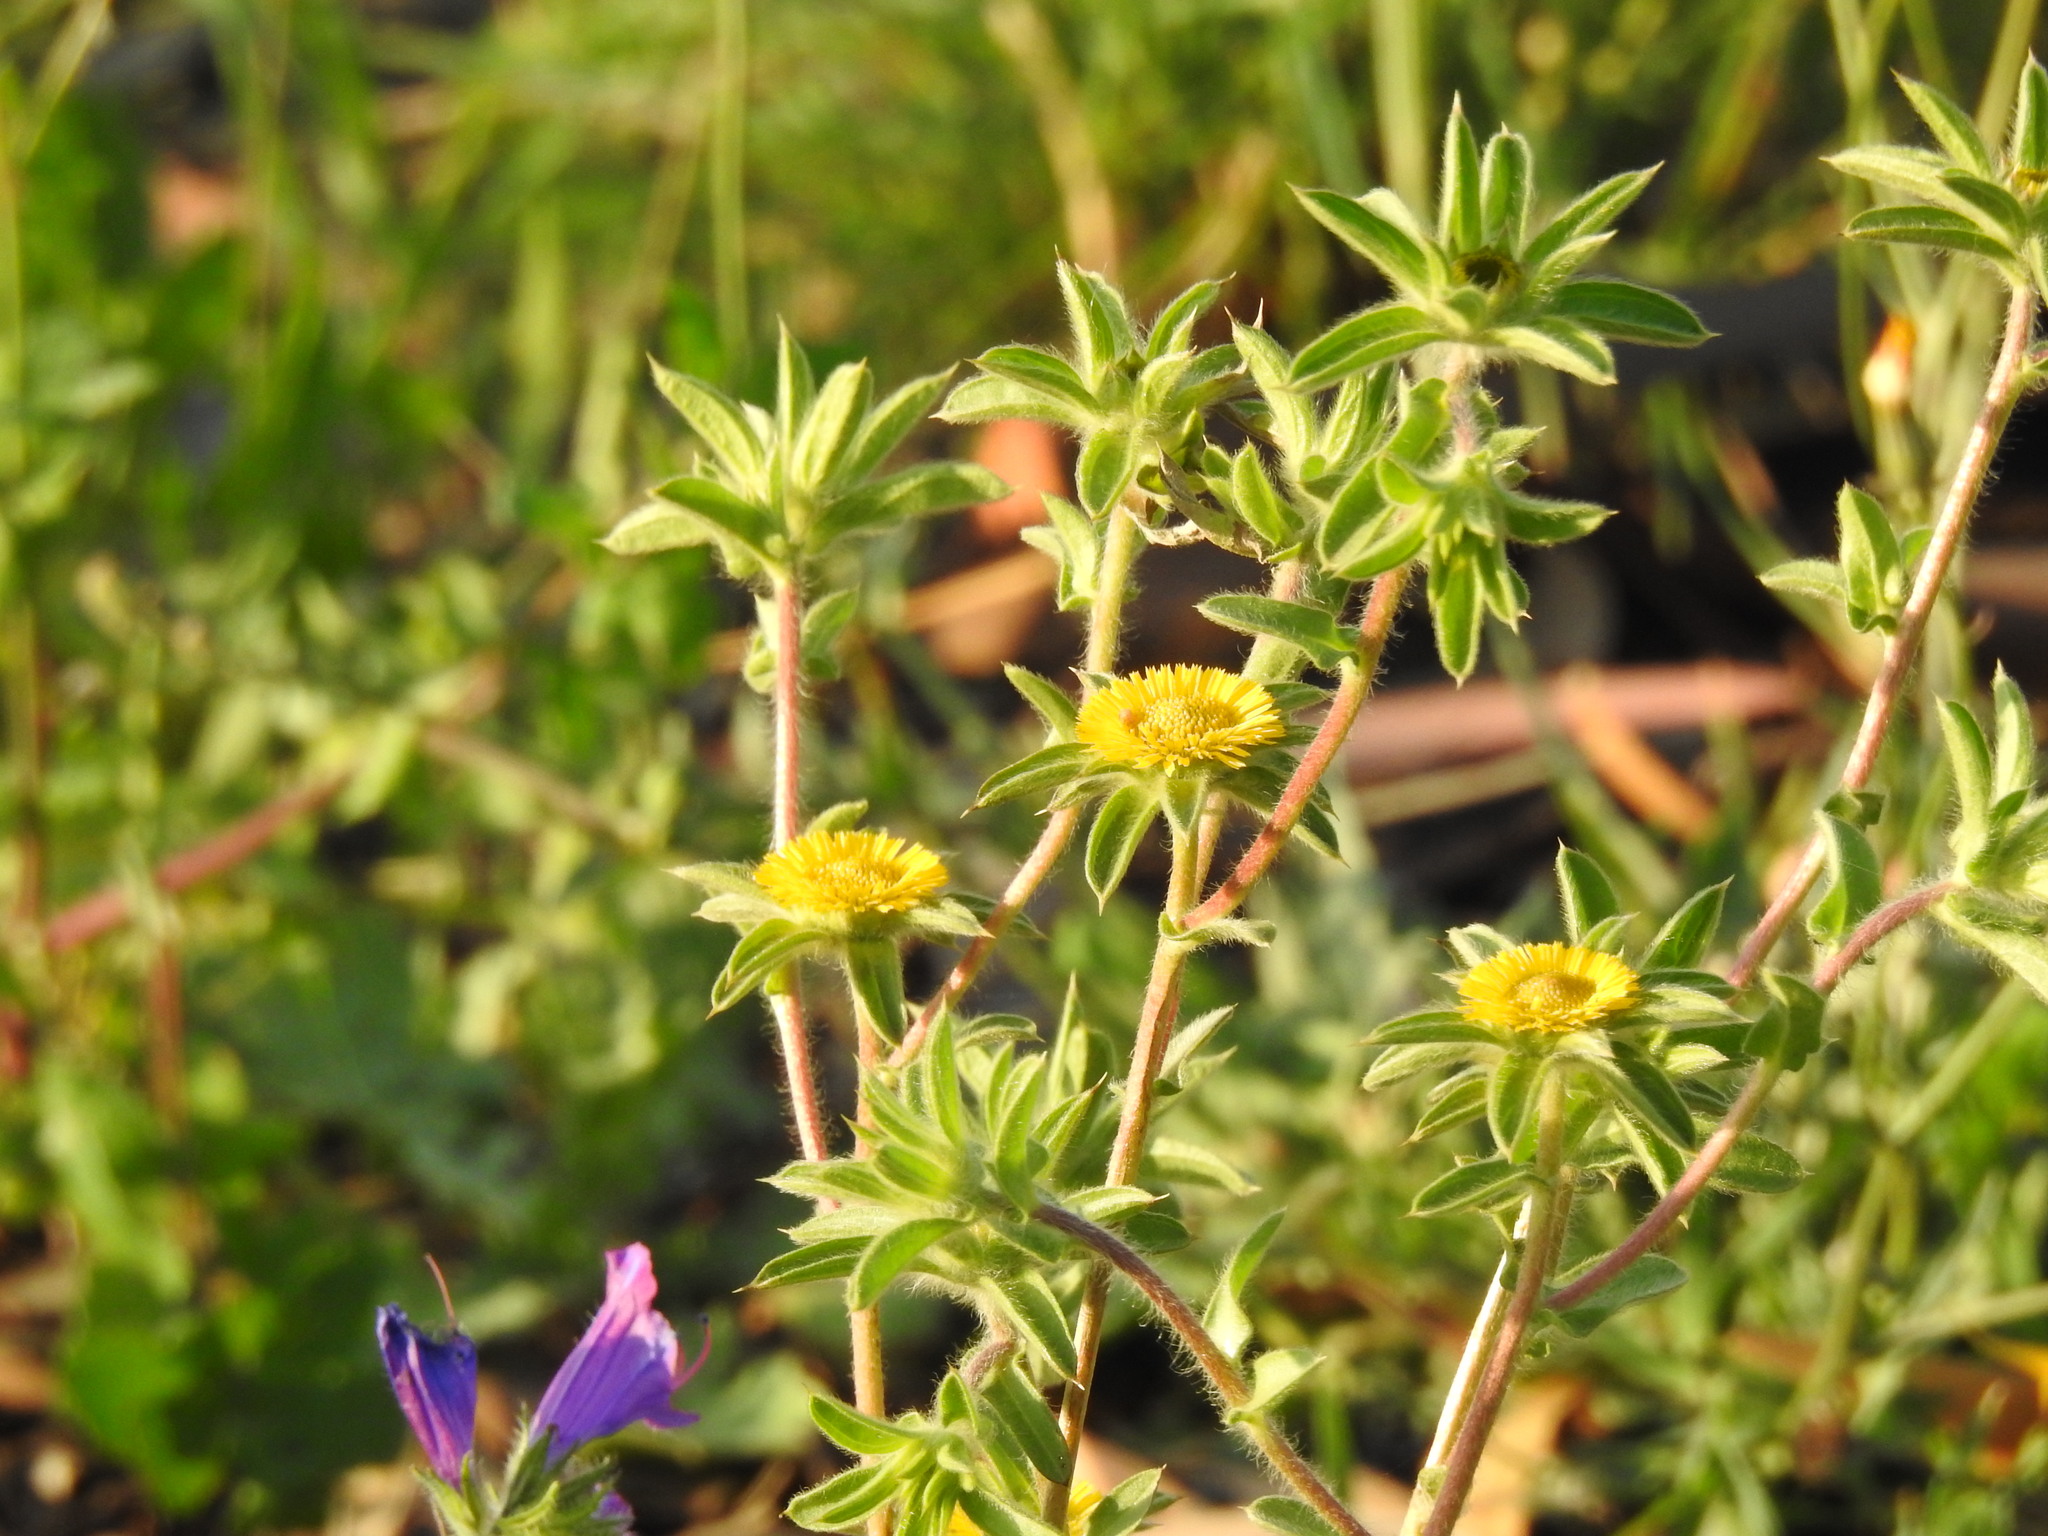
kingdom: Plantae
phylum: Tracheophyta
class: Magnoliopsida
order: Asterales
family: Asteraceae
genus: Pallenis
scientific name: Pallenis spinosa
